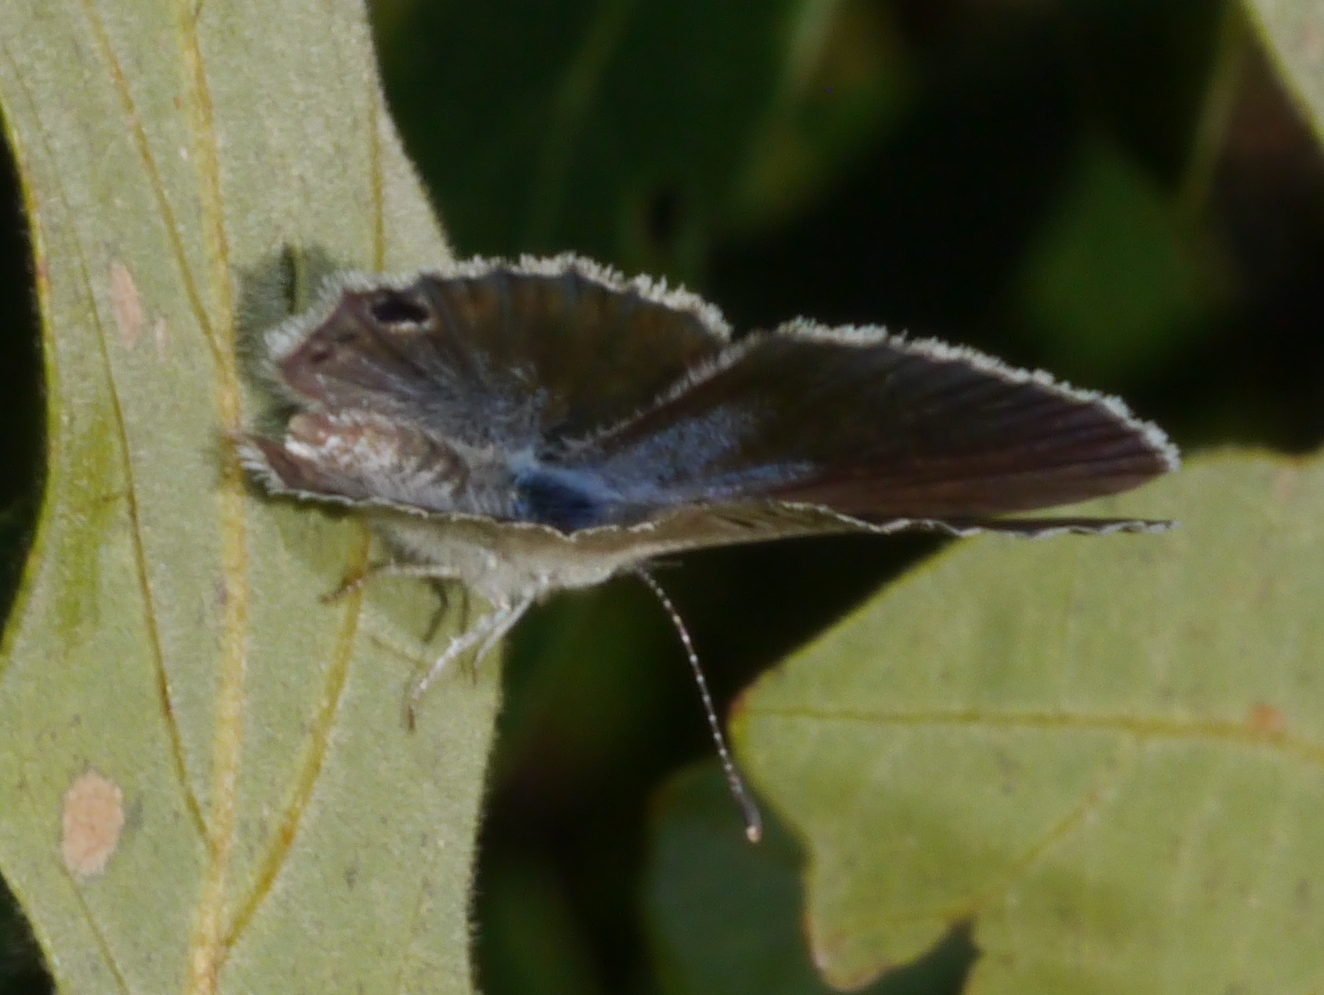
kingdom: Animalia
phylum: Arthropoda
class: Insecta
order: Lepidoptera
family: Lycaenidae
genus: Echinargus
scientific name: Echinargus isola
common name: Reakirt's blue
